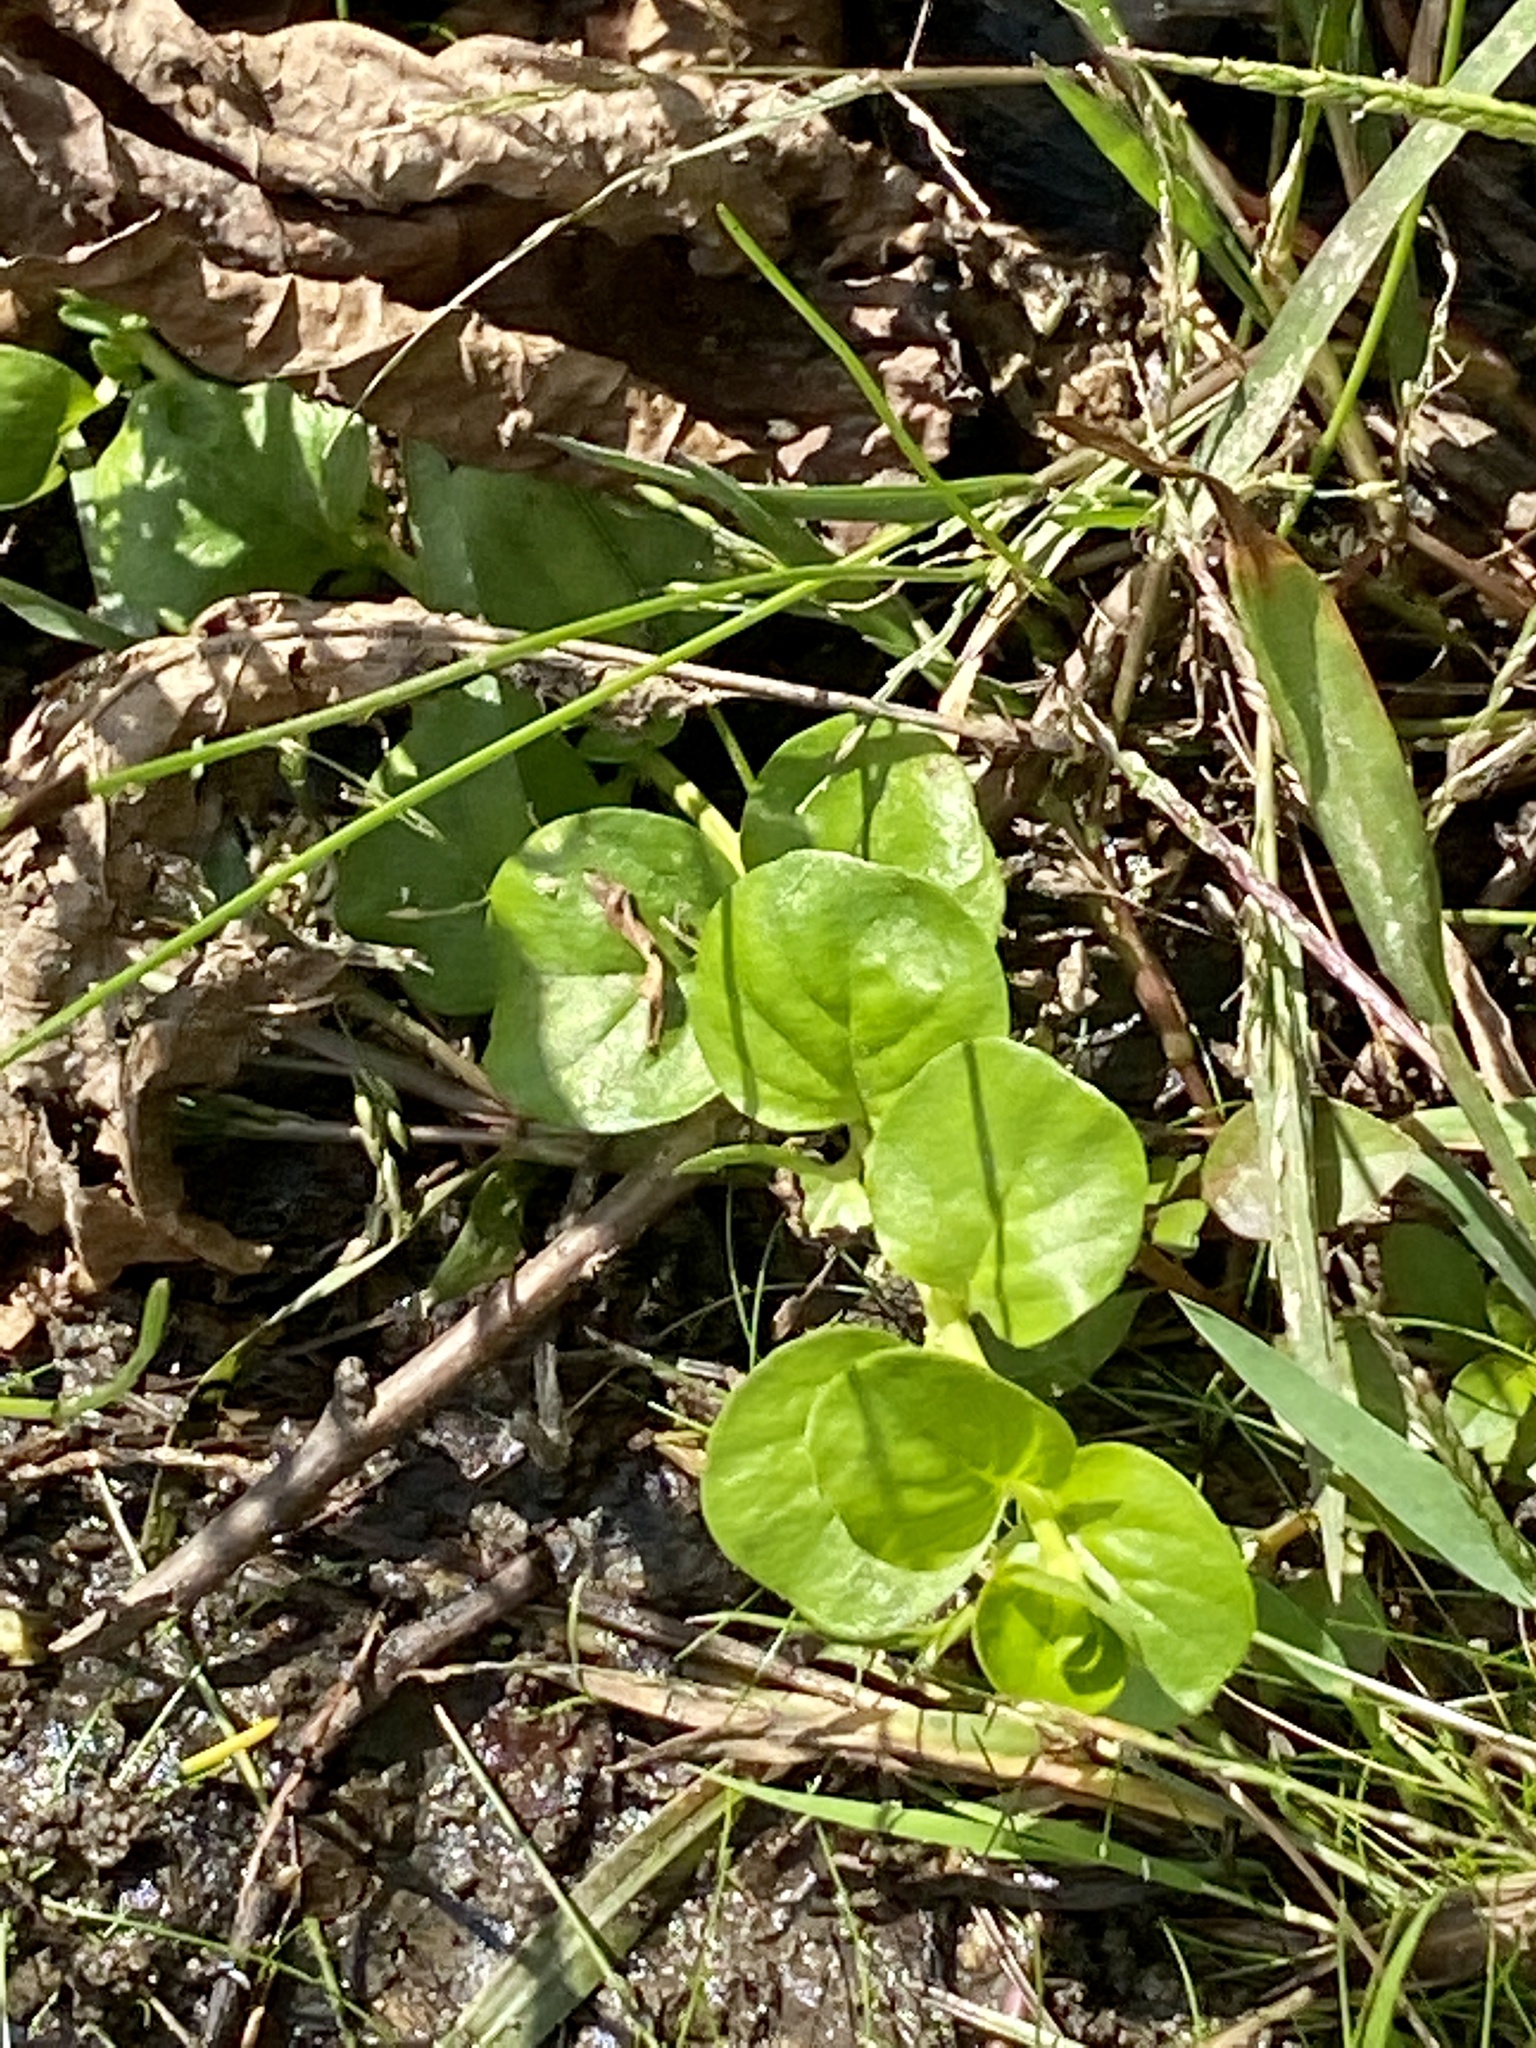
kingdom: Plantae
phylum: Tracheophyta
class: Magnoliopsida
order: Ericales
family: Primulaceae
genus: Lysimachia
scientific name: Lysimachia nummularia
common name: Moneywort
